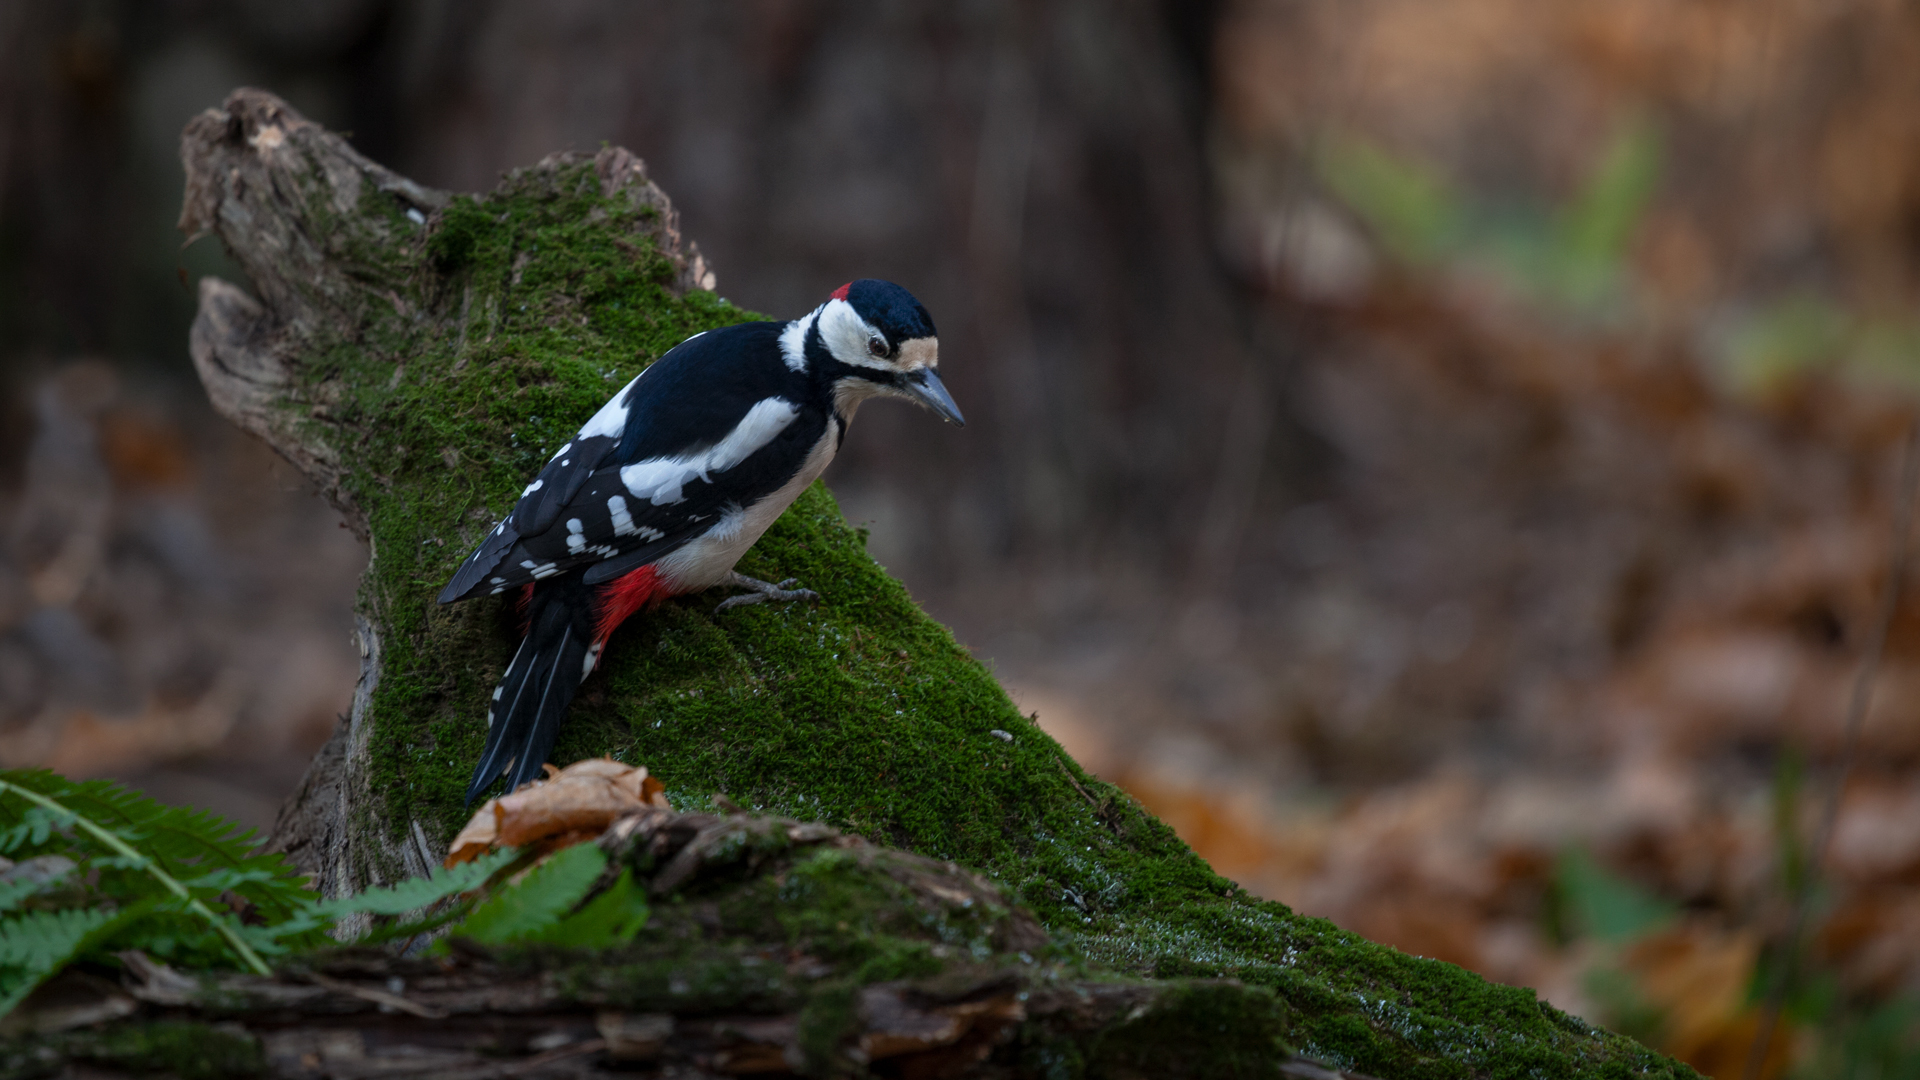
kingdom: Animalia
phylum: Chordata
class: Aves
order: Piciformes
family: Picidae
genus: Dendrocopos
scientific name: Dendrocopos major
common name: Great spotted woodpecker
